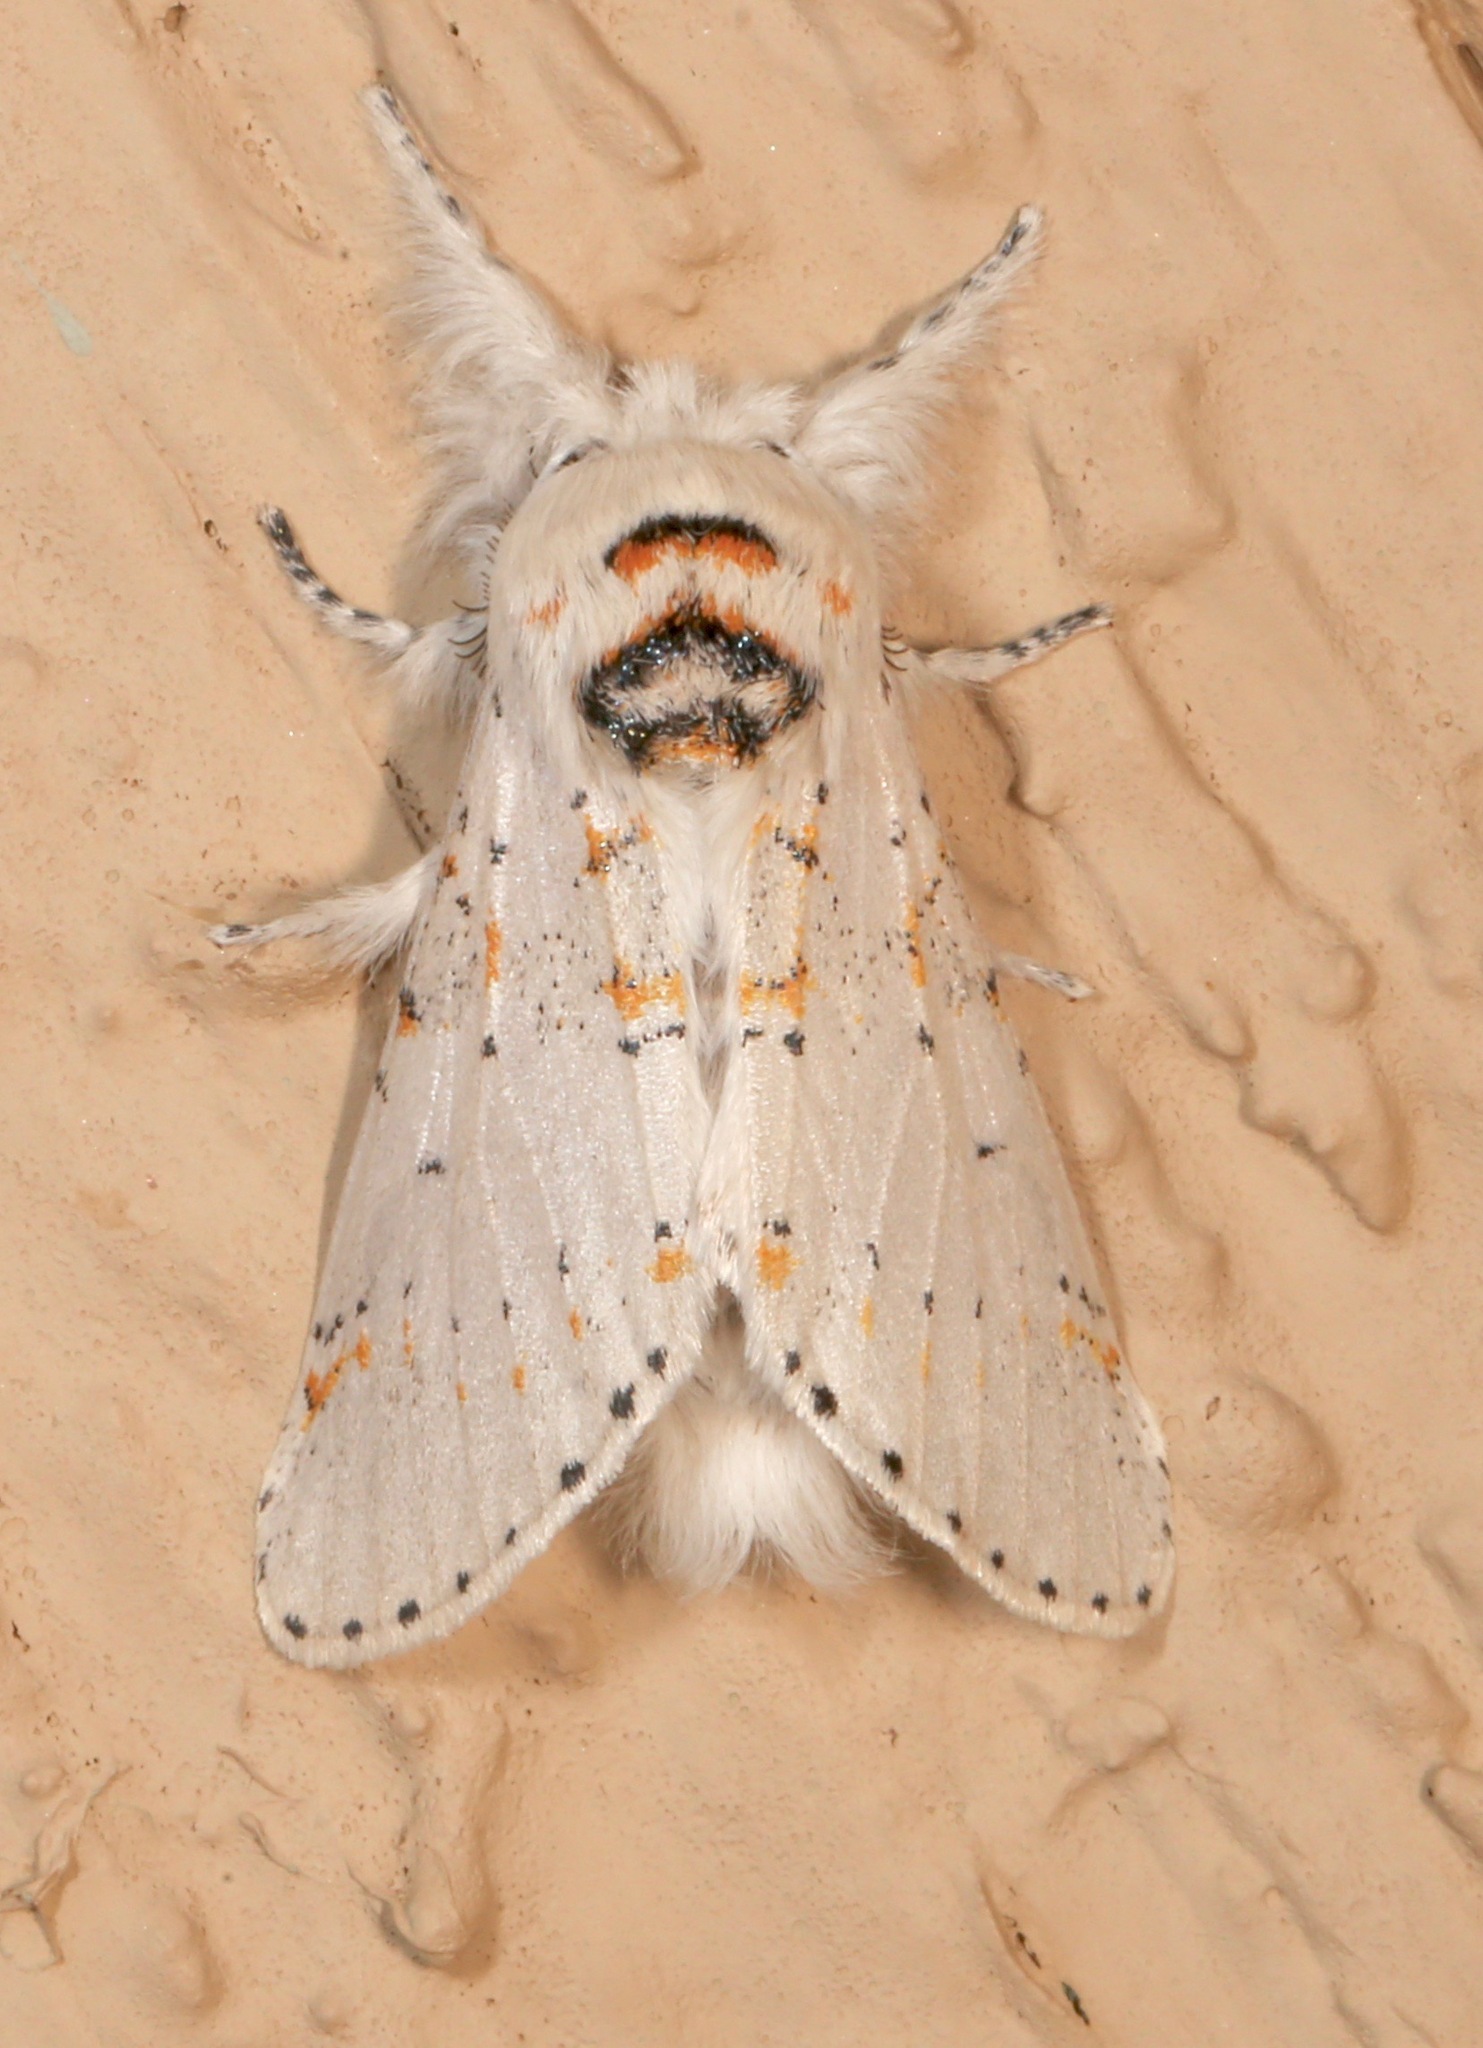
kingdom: Animalia
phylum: Arthropoda
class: Insecta
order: Lepidoptera
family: Notodontidae
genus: Furcula
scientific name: Furcula cinerea
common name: Gray furcula
